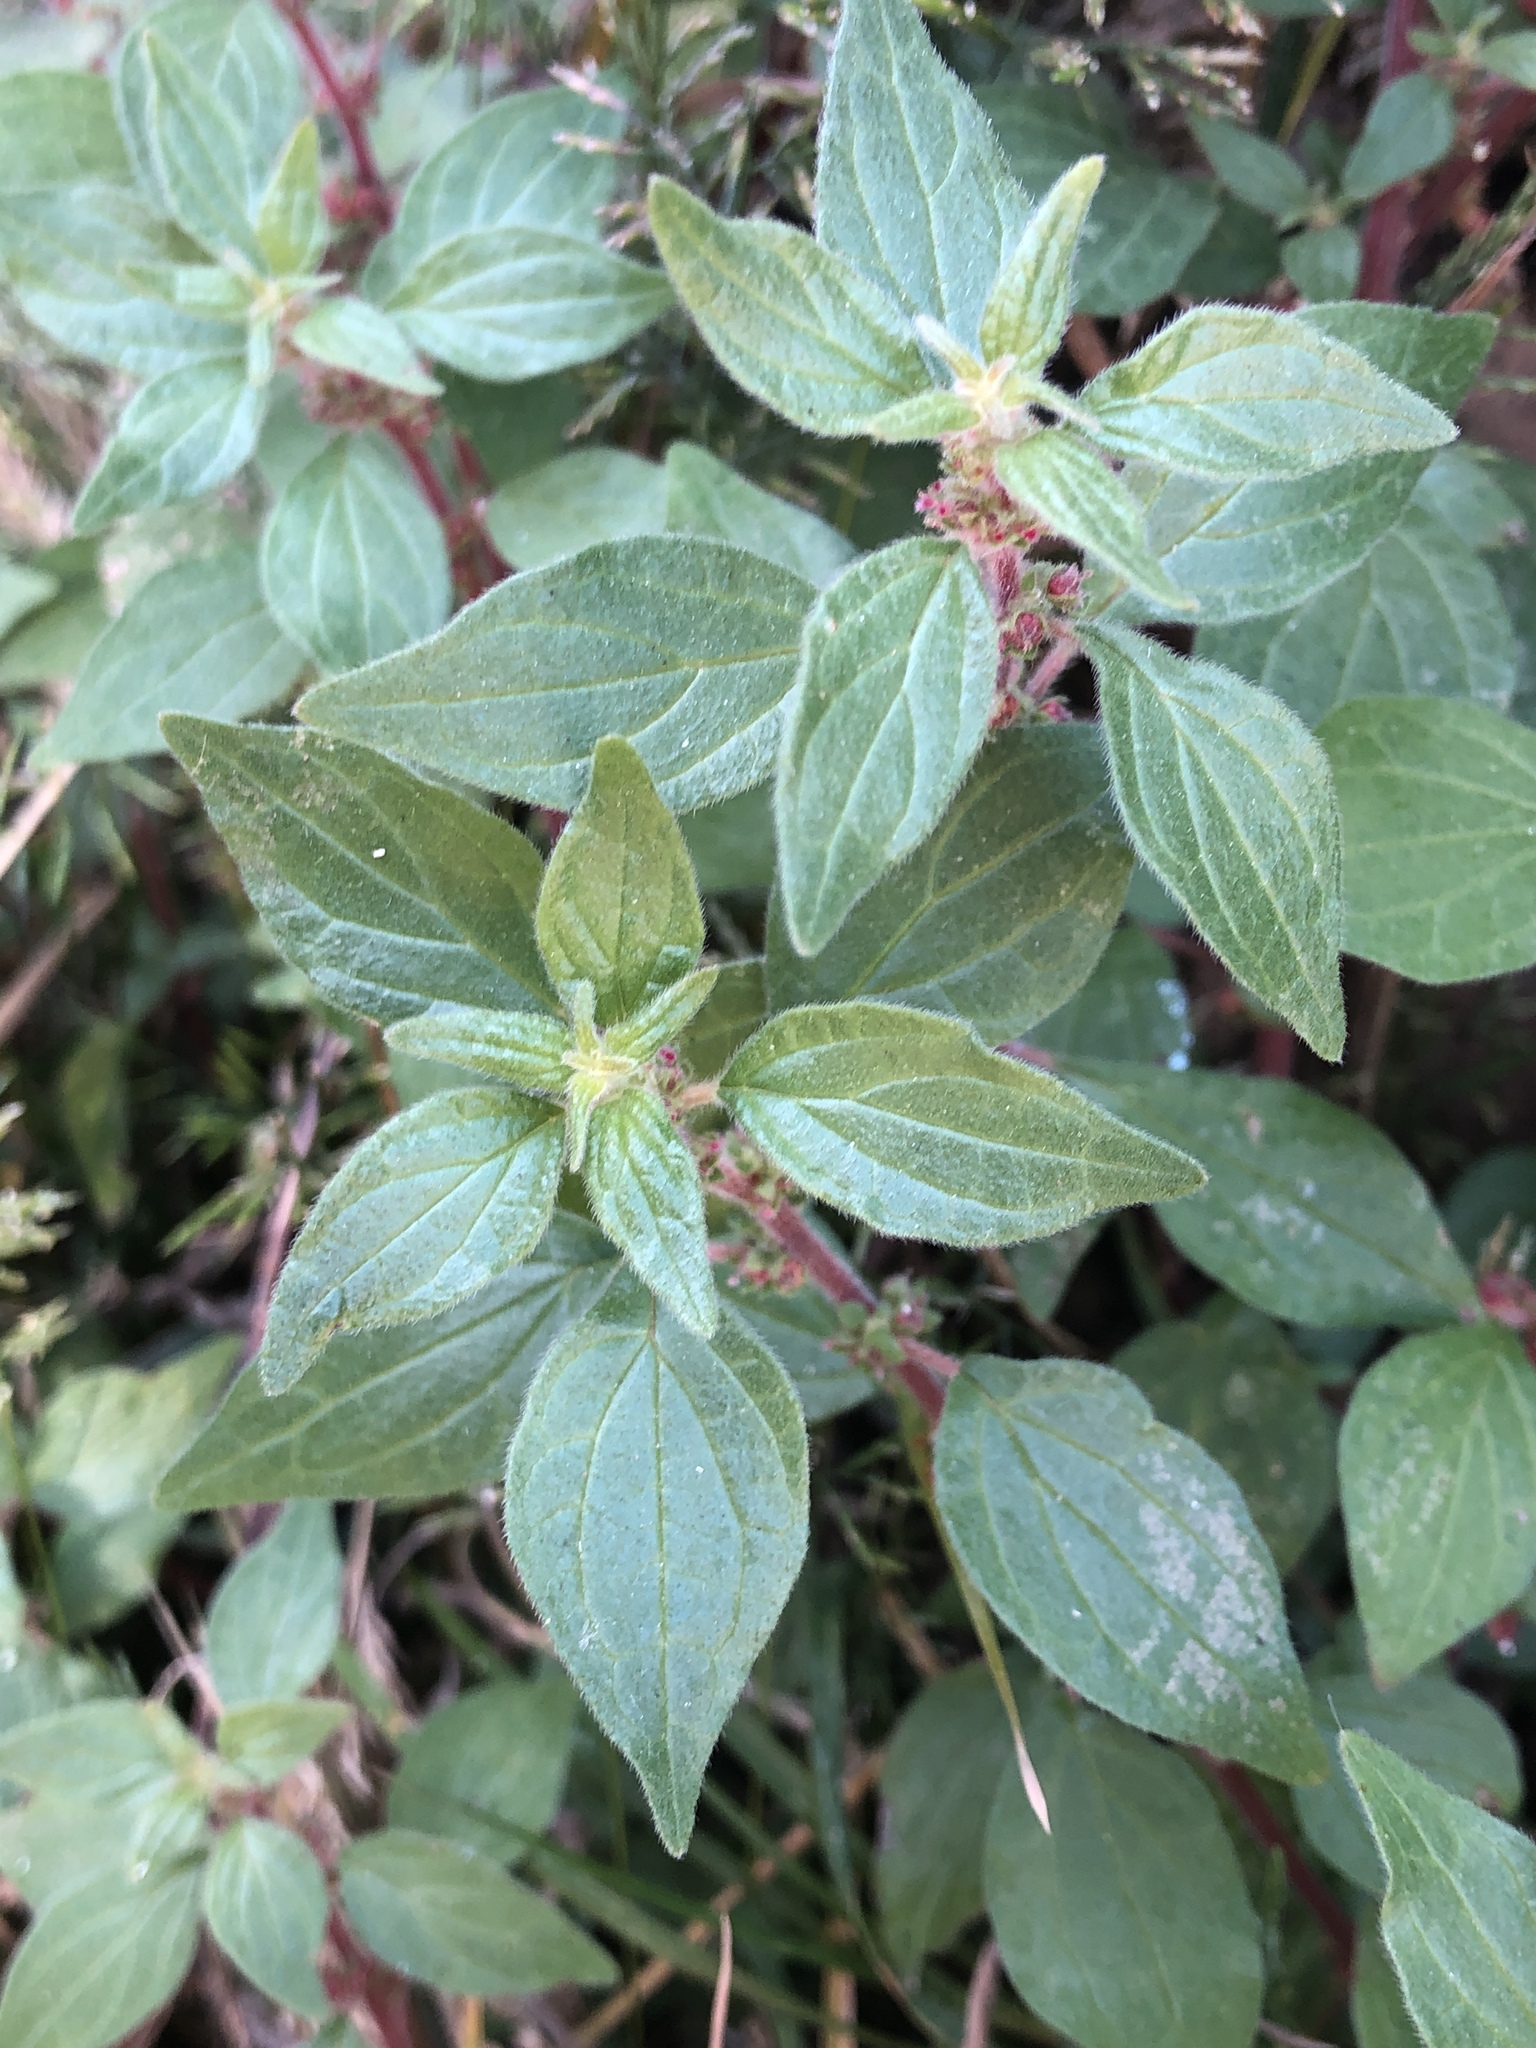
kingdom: Plantae
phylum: Tracheophyta
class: Magnoliopsida
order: Rosales
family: Urticaceae
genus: Parietaria
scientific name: Parietaria judaica
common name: Pellitory-of-the-wall
